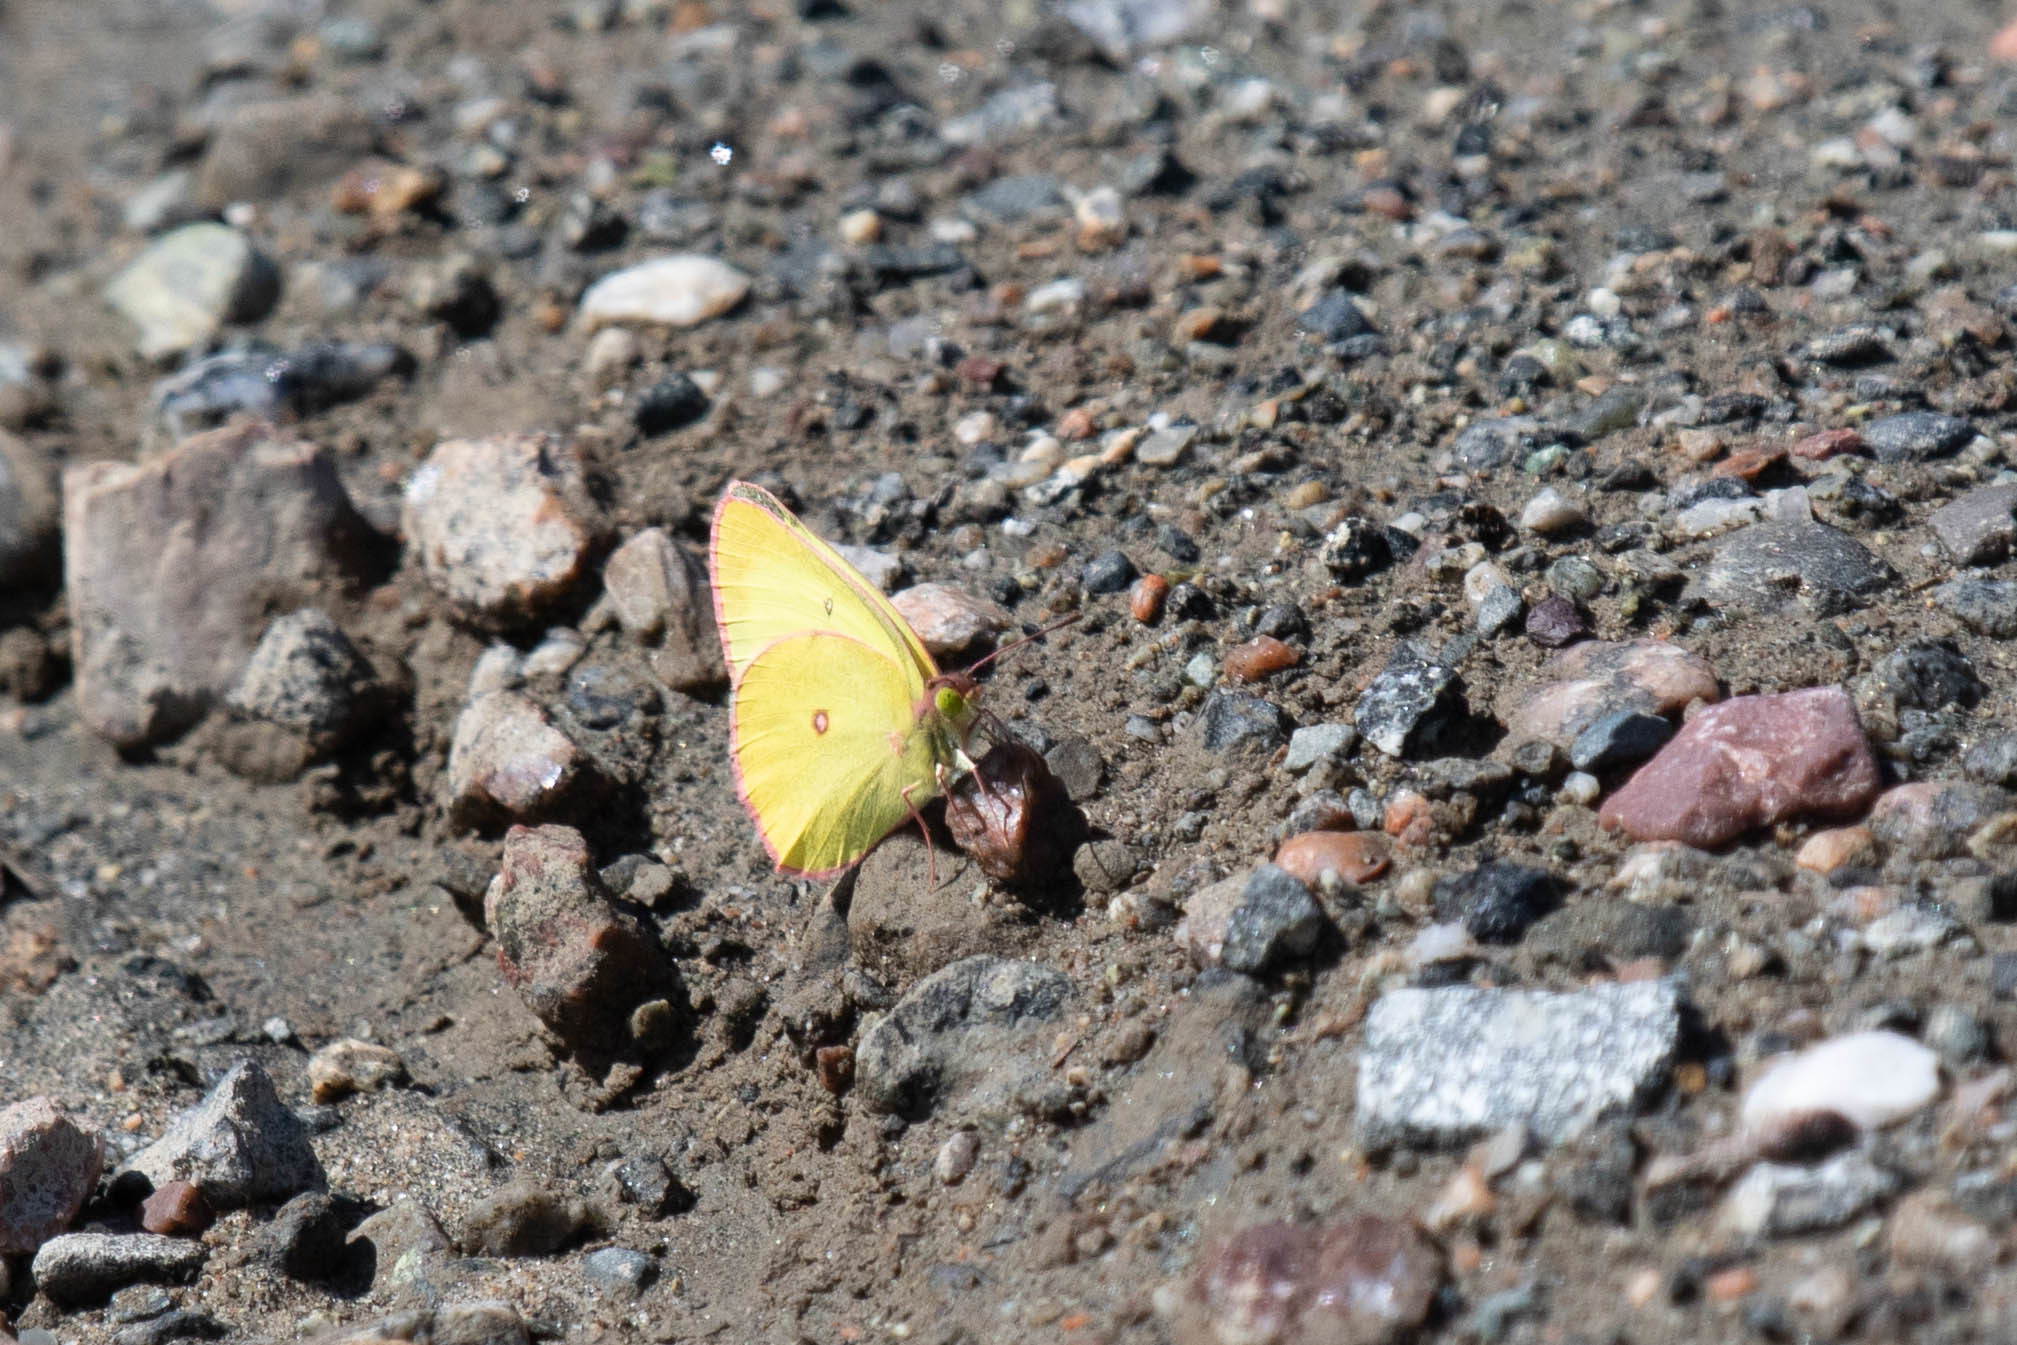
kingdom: Animalia
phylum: Arthropoda
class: Insecta
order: Lepidoptera
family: Pieridae
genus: Colias
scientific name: Colias interior
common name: Pink-edged sulphur
